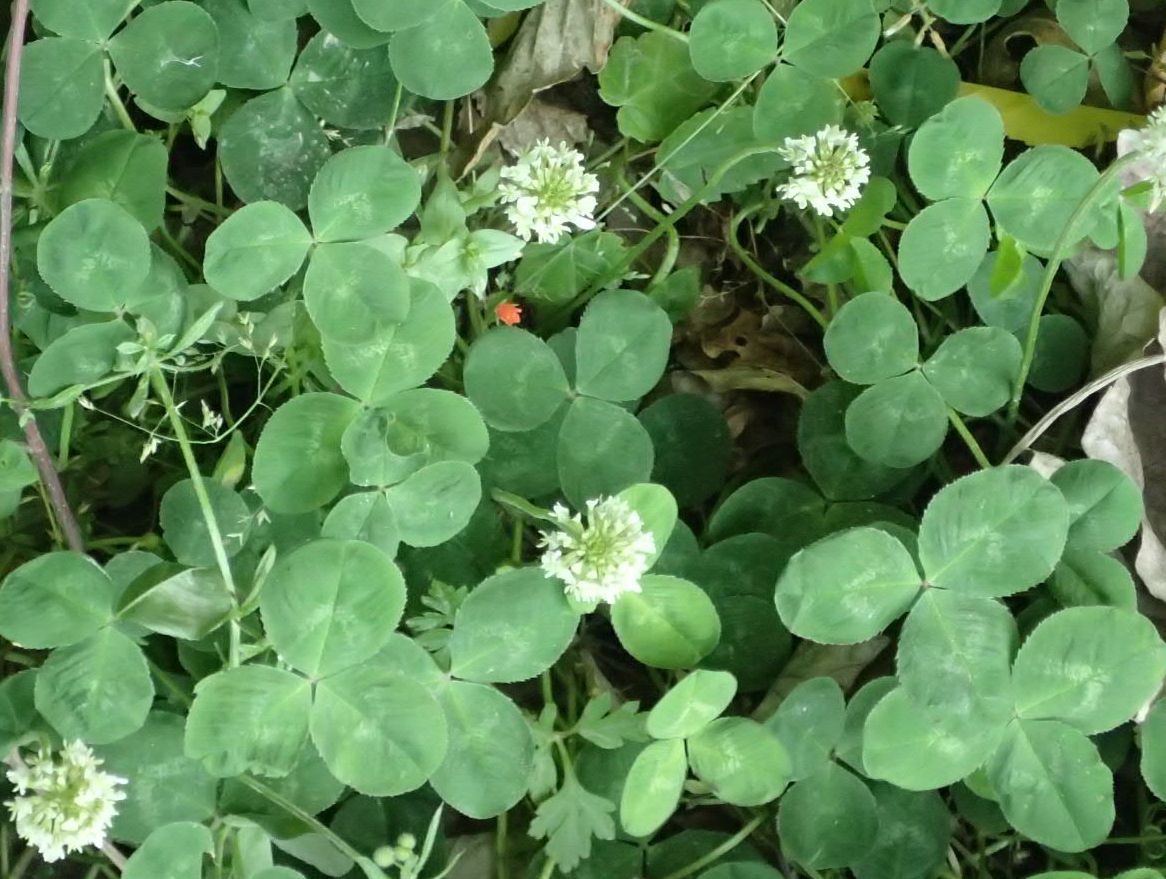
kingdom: Plantae
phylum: Tracheophyta
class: Magnoliopsida
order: Fabales
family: Fabaceae
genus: Trifolium
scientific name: Trifolium repens
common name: White clover
